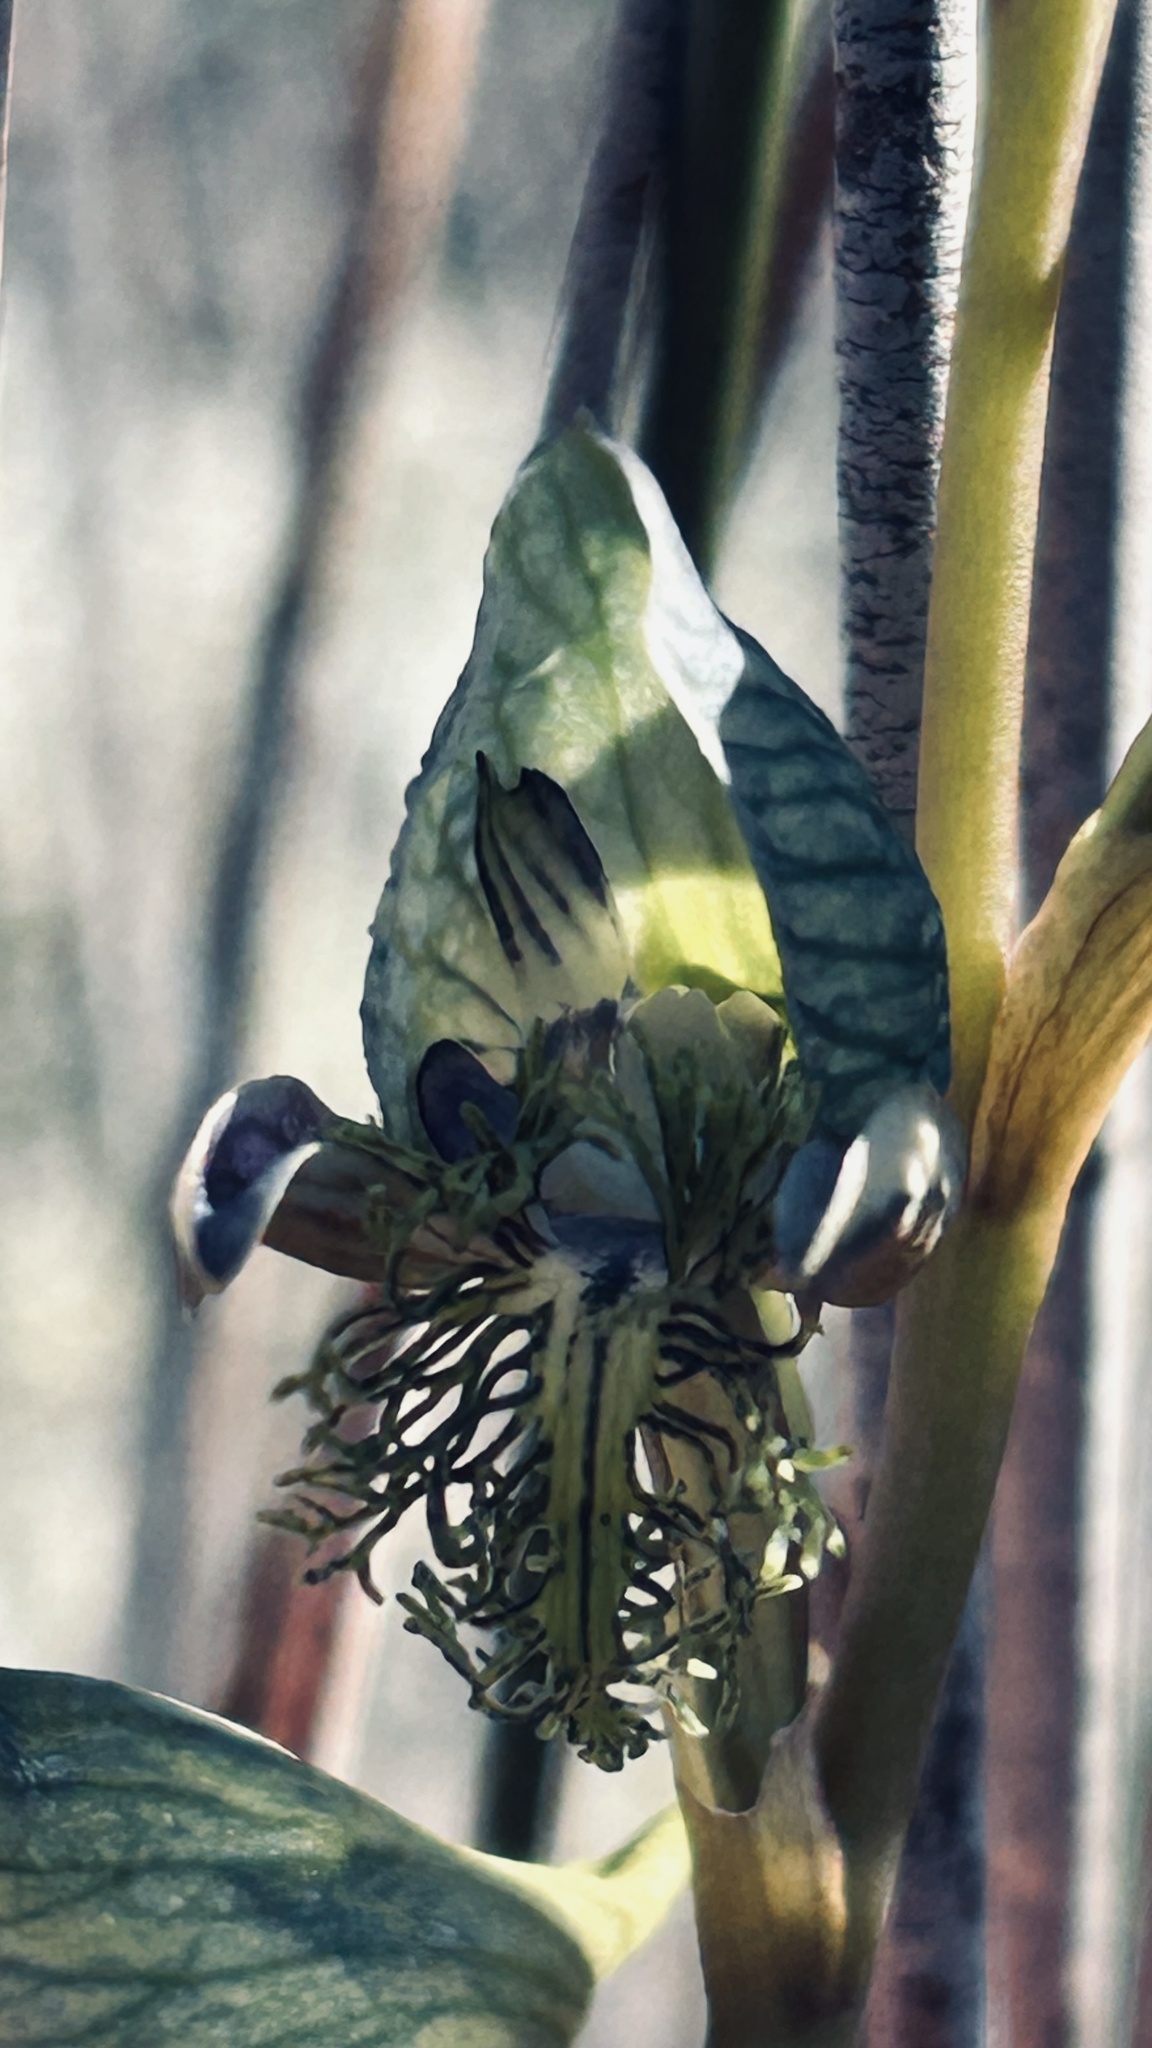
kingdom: Plantae
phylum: Tracheophyta
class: Liliopsida
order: Asparagales
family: Orchidaceae
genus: Disa
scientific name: Disa lugens
